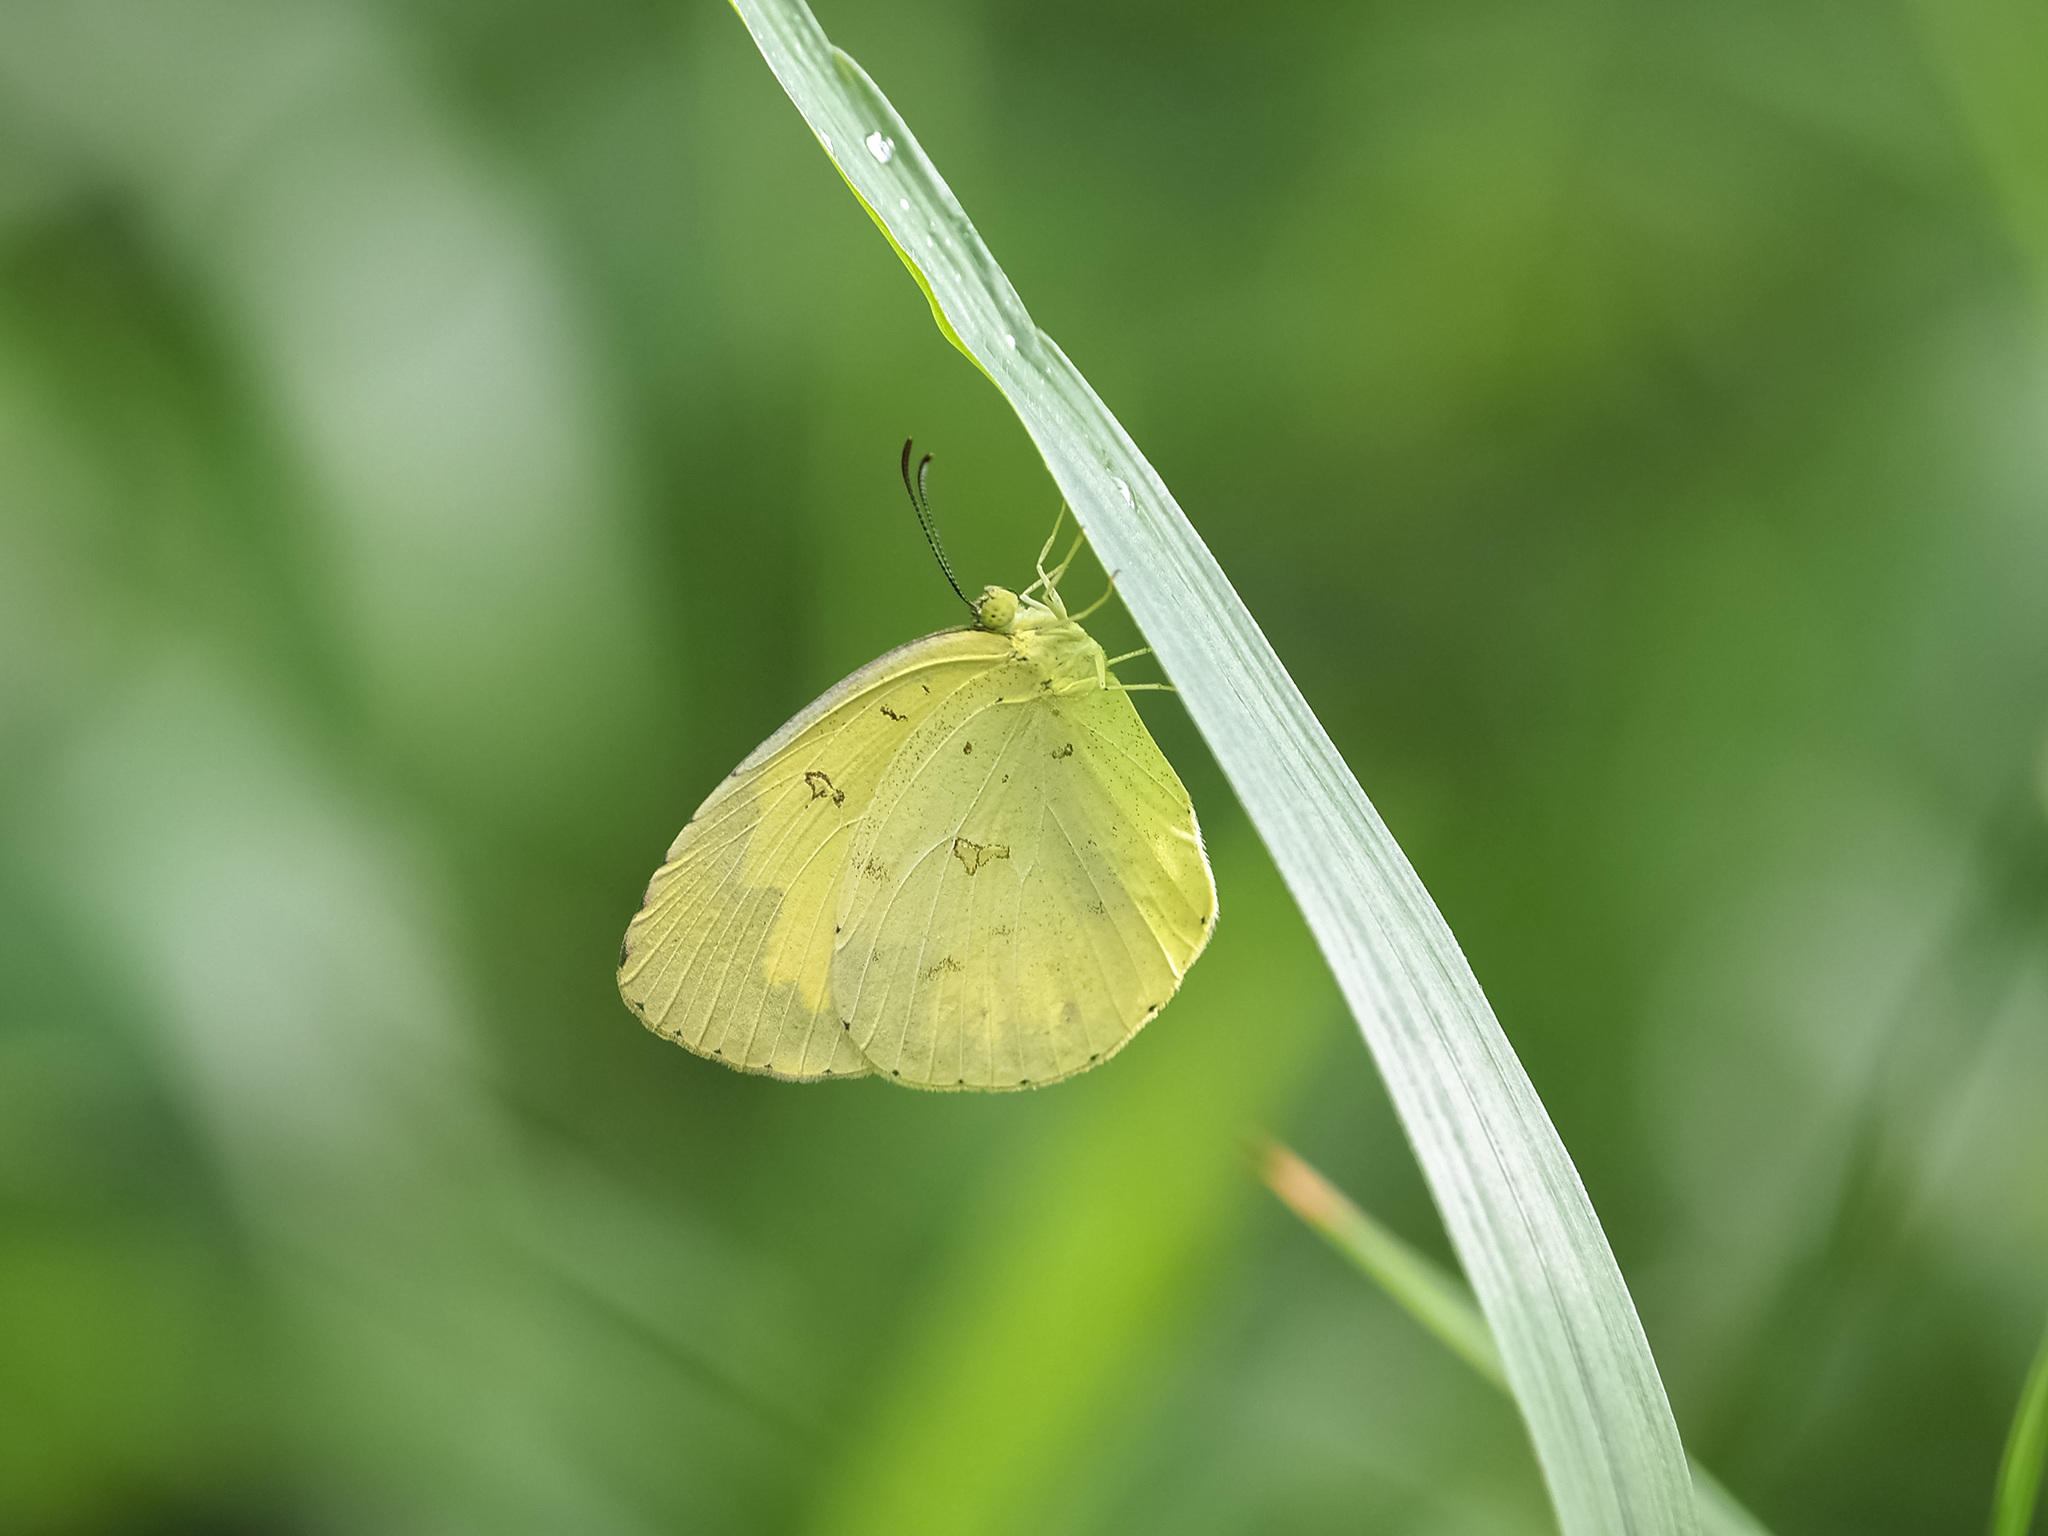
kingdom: Animalia
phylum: Arthropoda
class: Insecta
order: Lepidoptera
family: Pieridae
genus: Eurema
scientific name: Eurema hecabe
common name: Pale grass yellow
